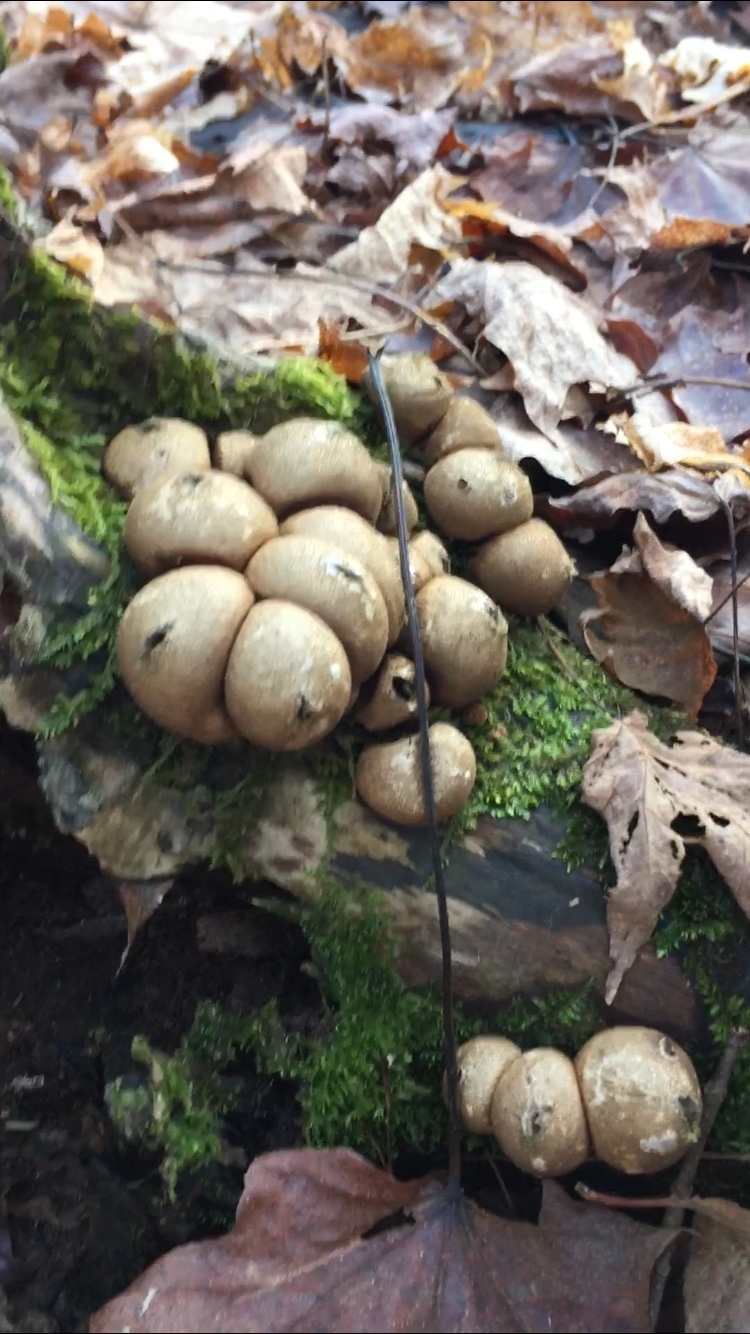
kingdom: Fungi
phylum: Basidiomycota
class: Agaricomycetes
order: Agaricales
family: Lycoperdaceae
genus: Apioperdon
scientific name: Apioperdon pyriforme
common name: Pear-shaped puffball
